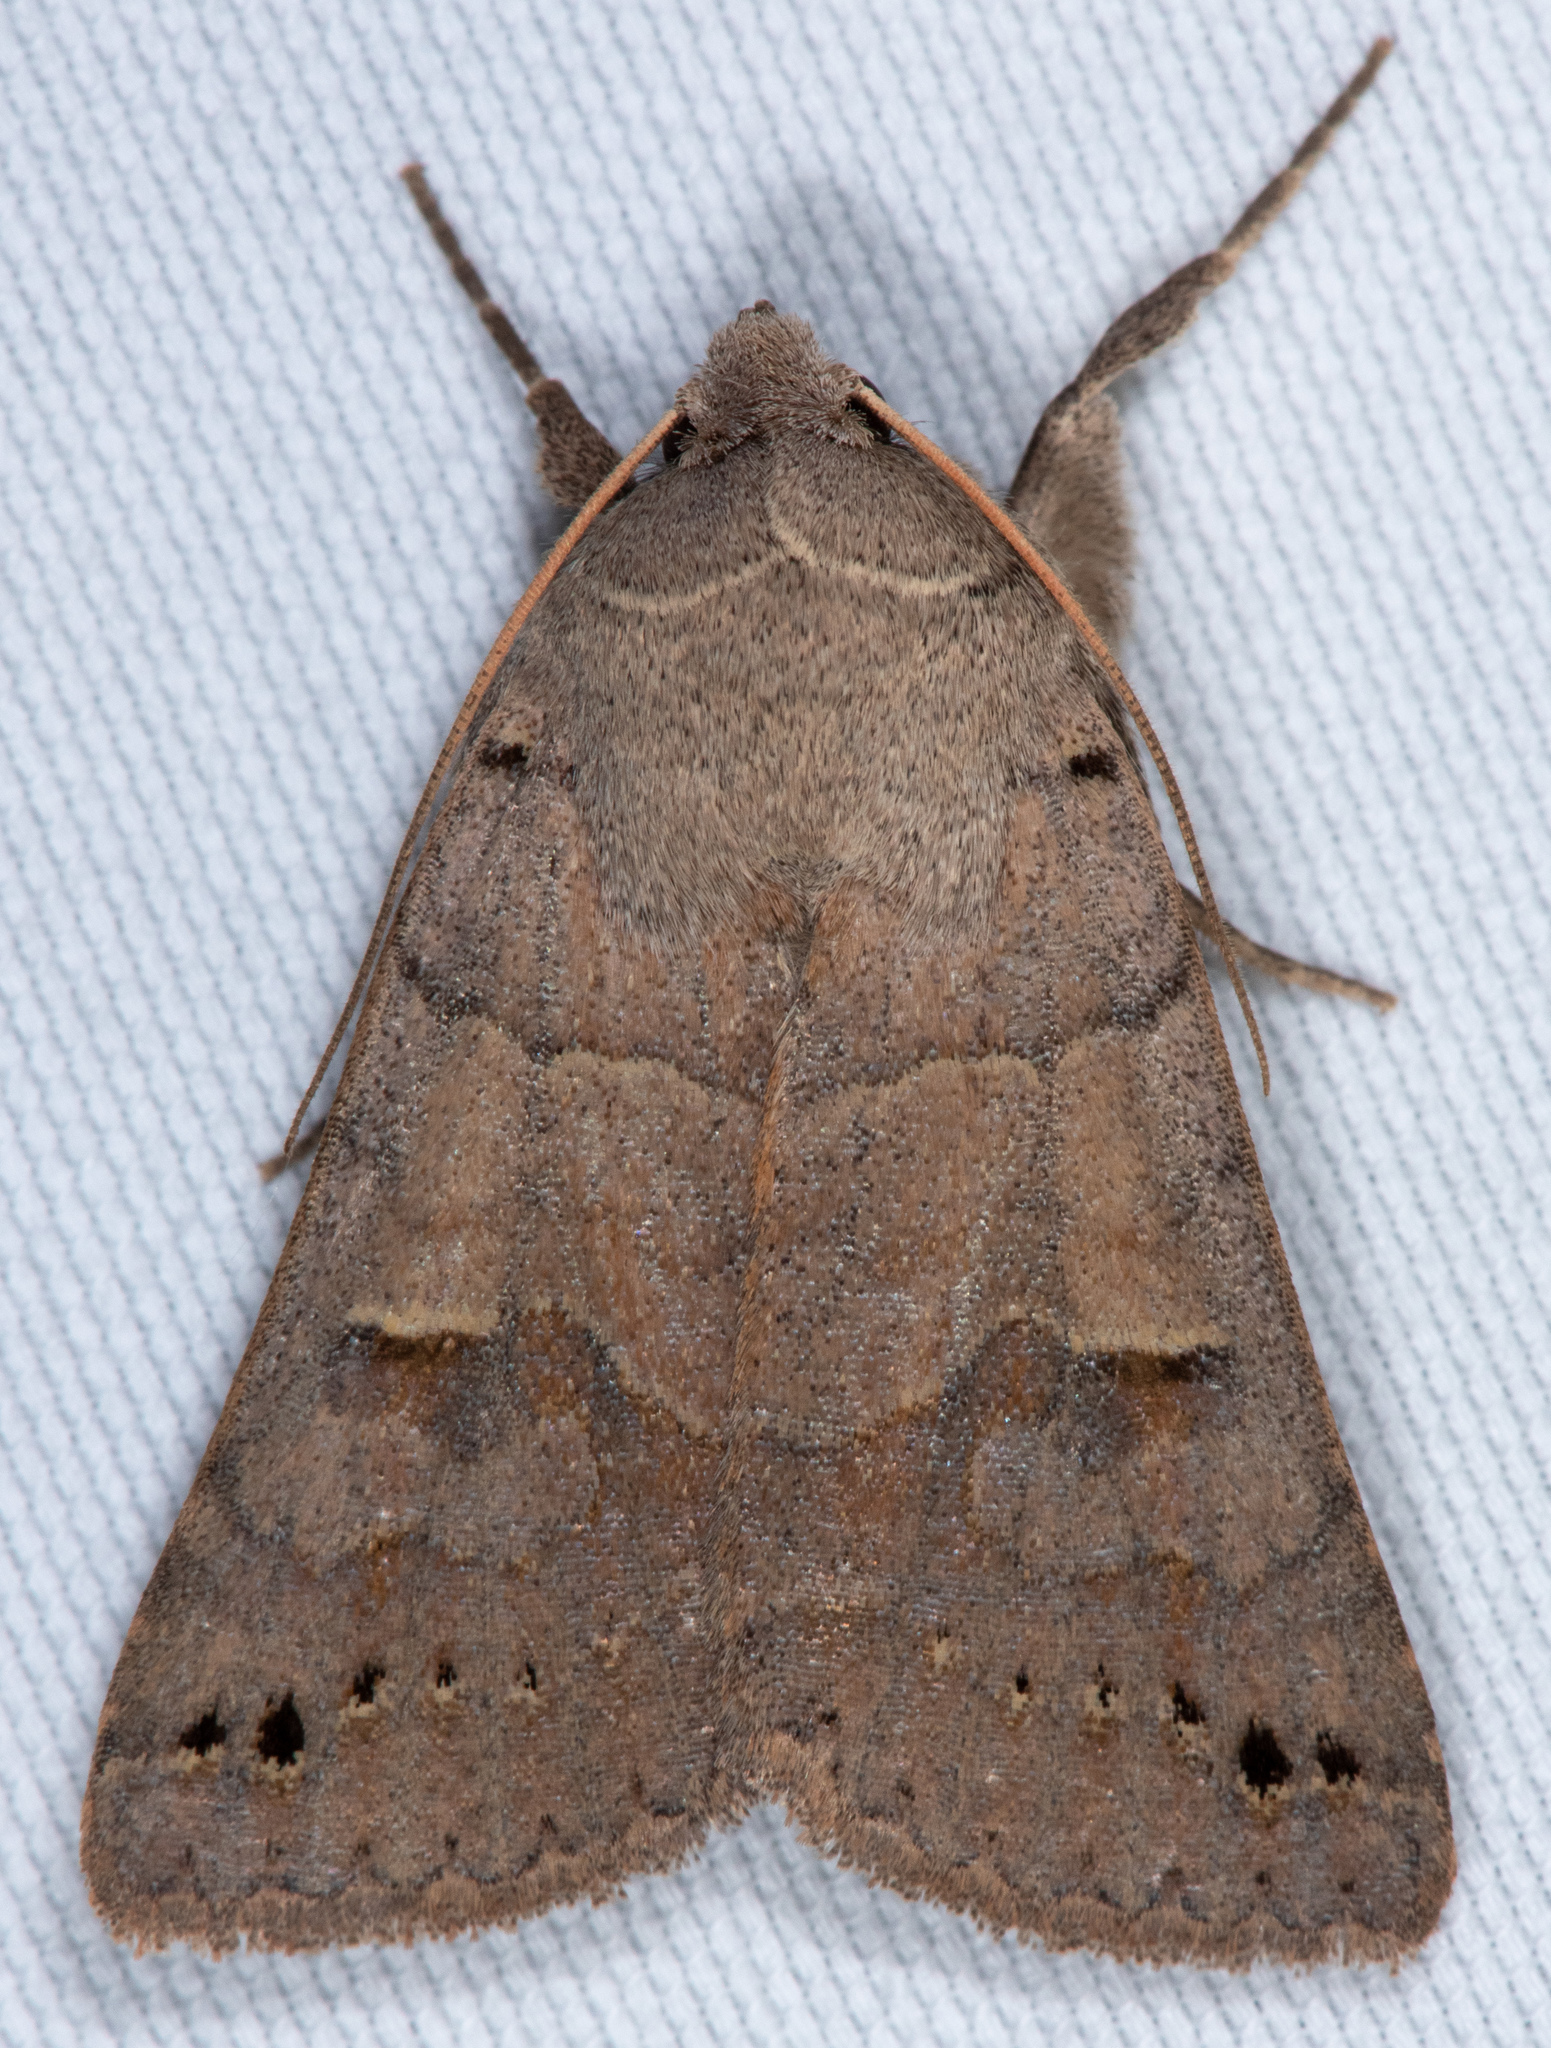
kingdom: Animalia
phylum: Arthropoda
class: Insecta
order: Lepidoptera
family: Erebidae
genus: Cissusa
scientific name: Cissusa indiscreta
